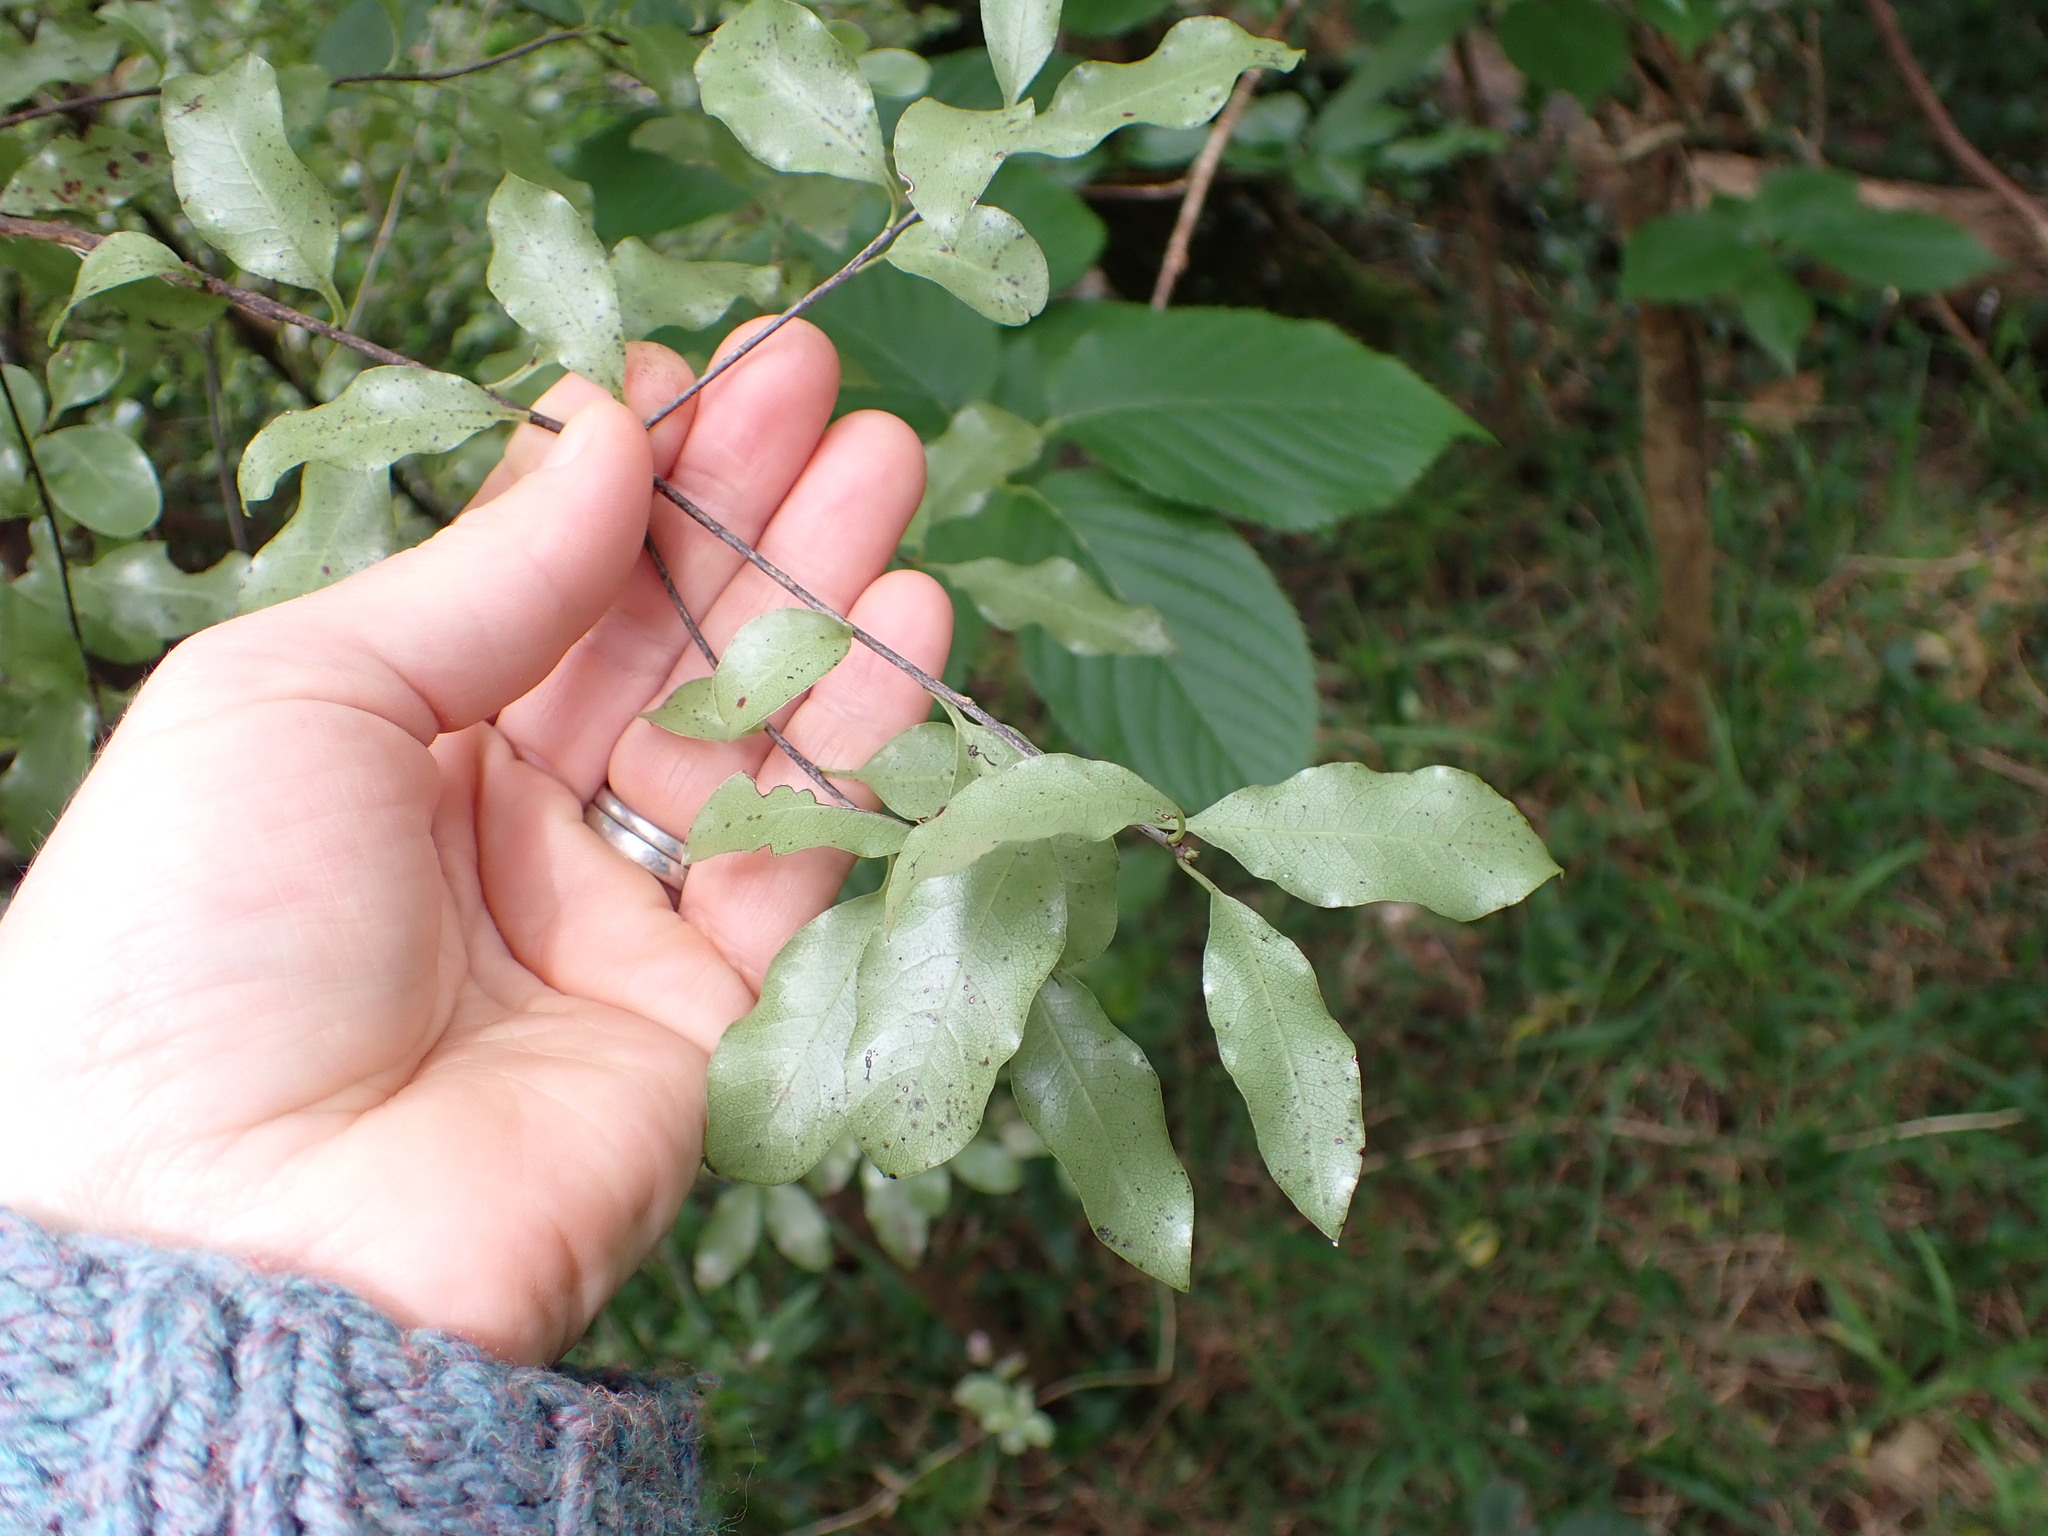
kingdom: Plantae
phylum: Tracheophyta
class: Magnoliopsida
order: Apiales
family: Pittosporaceae
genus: Pittosporum
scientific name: Pittosporum tenuifolium
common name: Kohuhu
